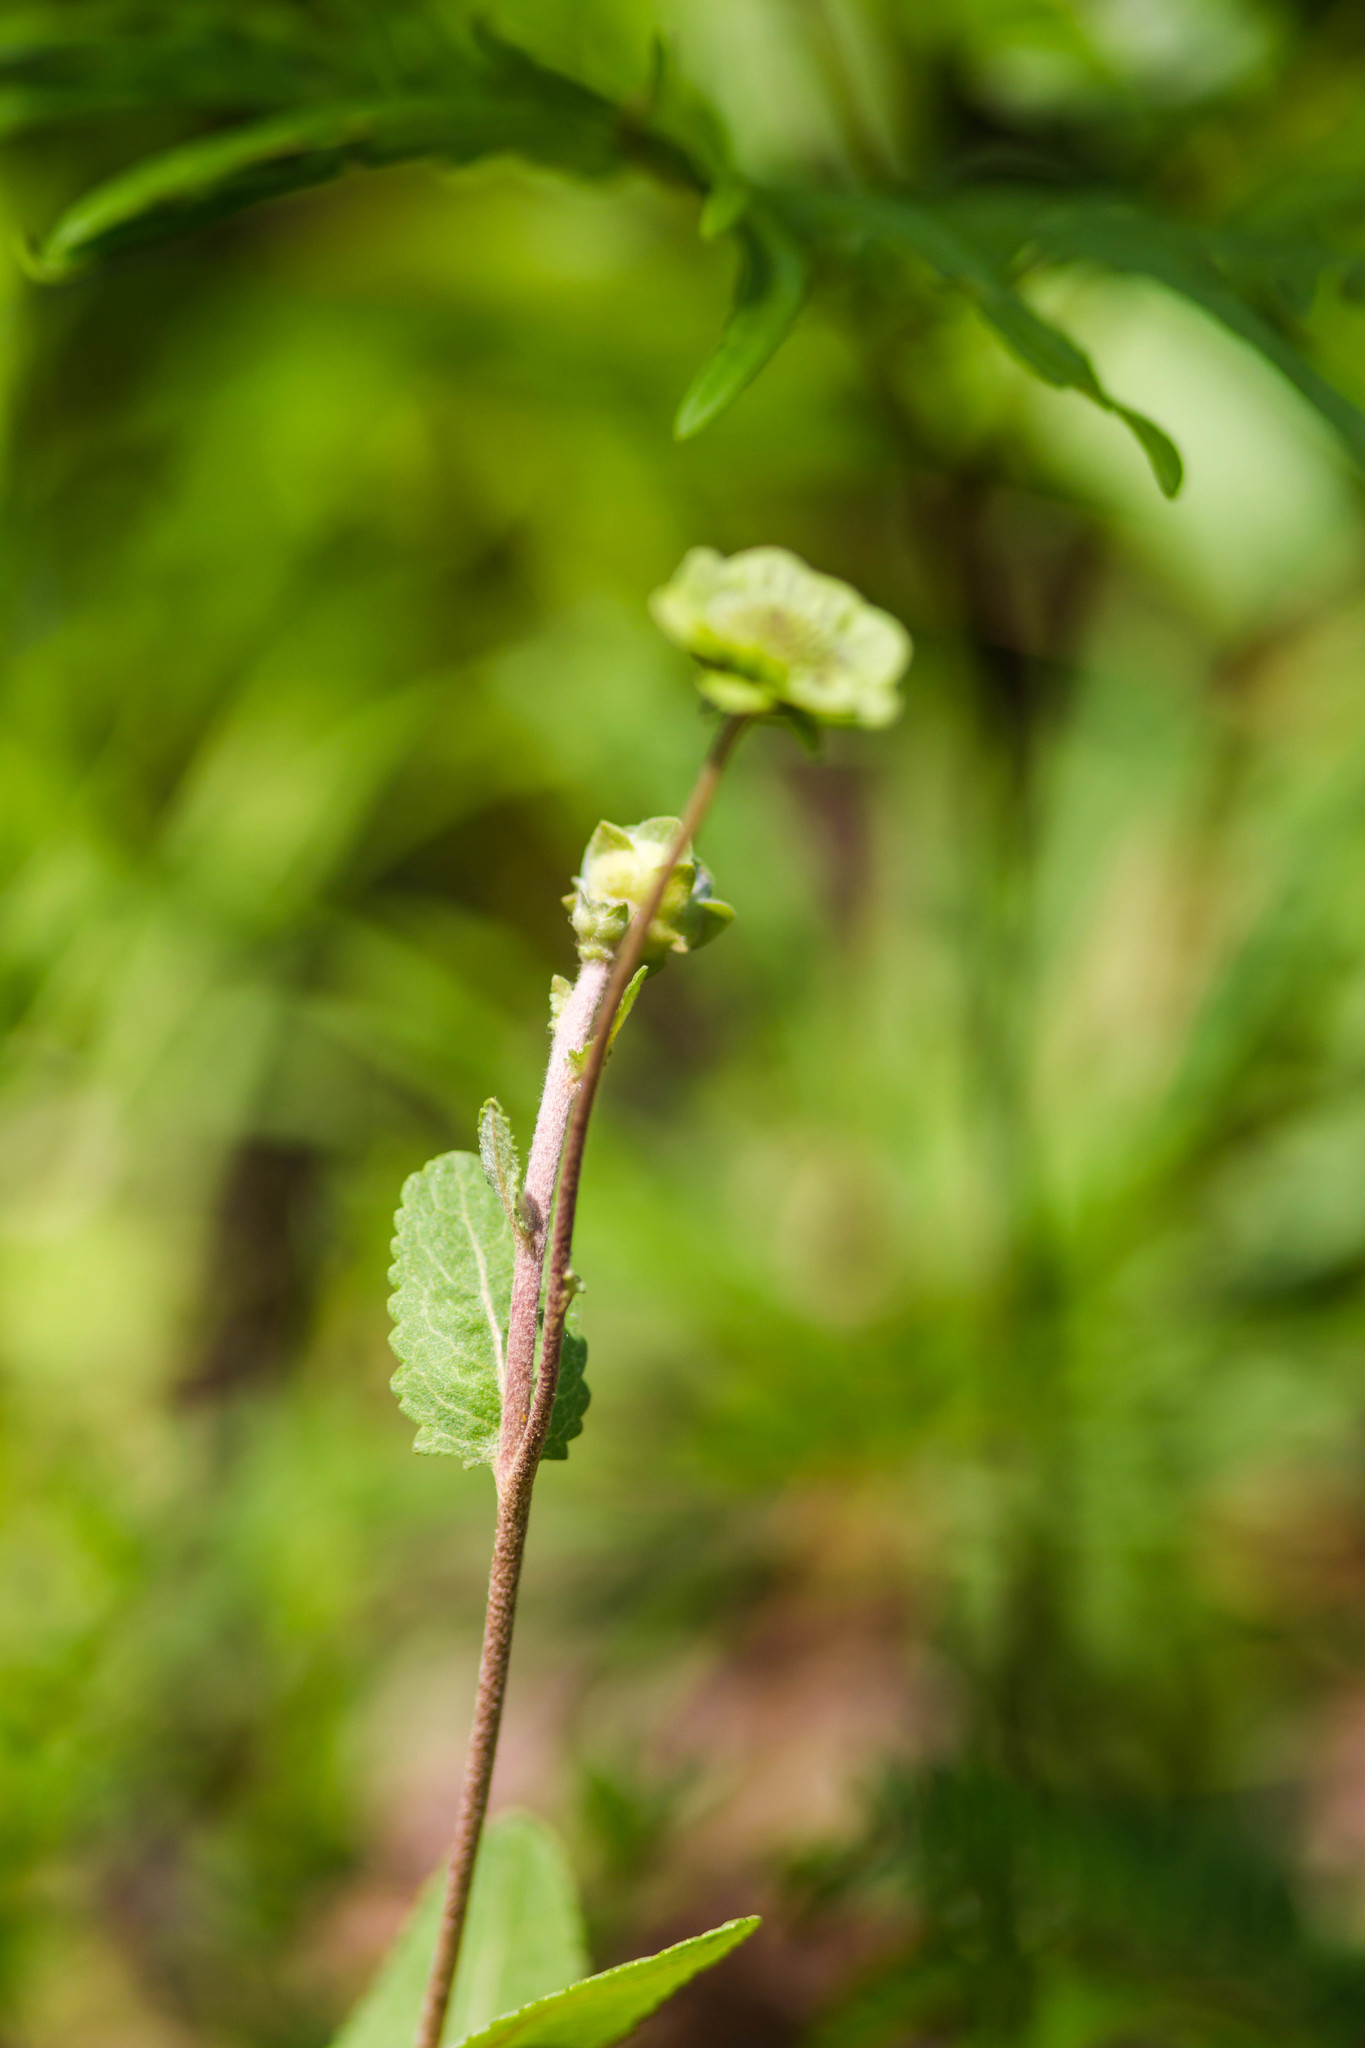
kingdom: Plantae
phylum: Tracheophyta
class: Magnoliopsida
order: Asterales
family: Asteraceae
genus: Berlandiera
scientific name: Berlandiera pumila
